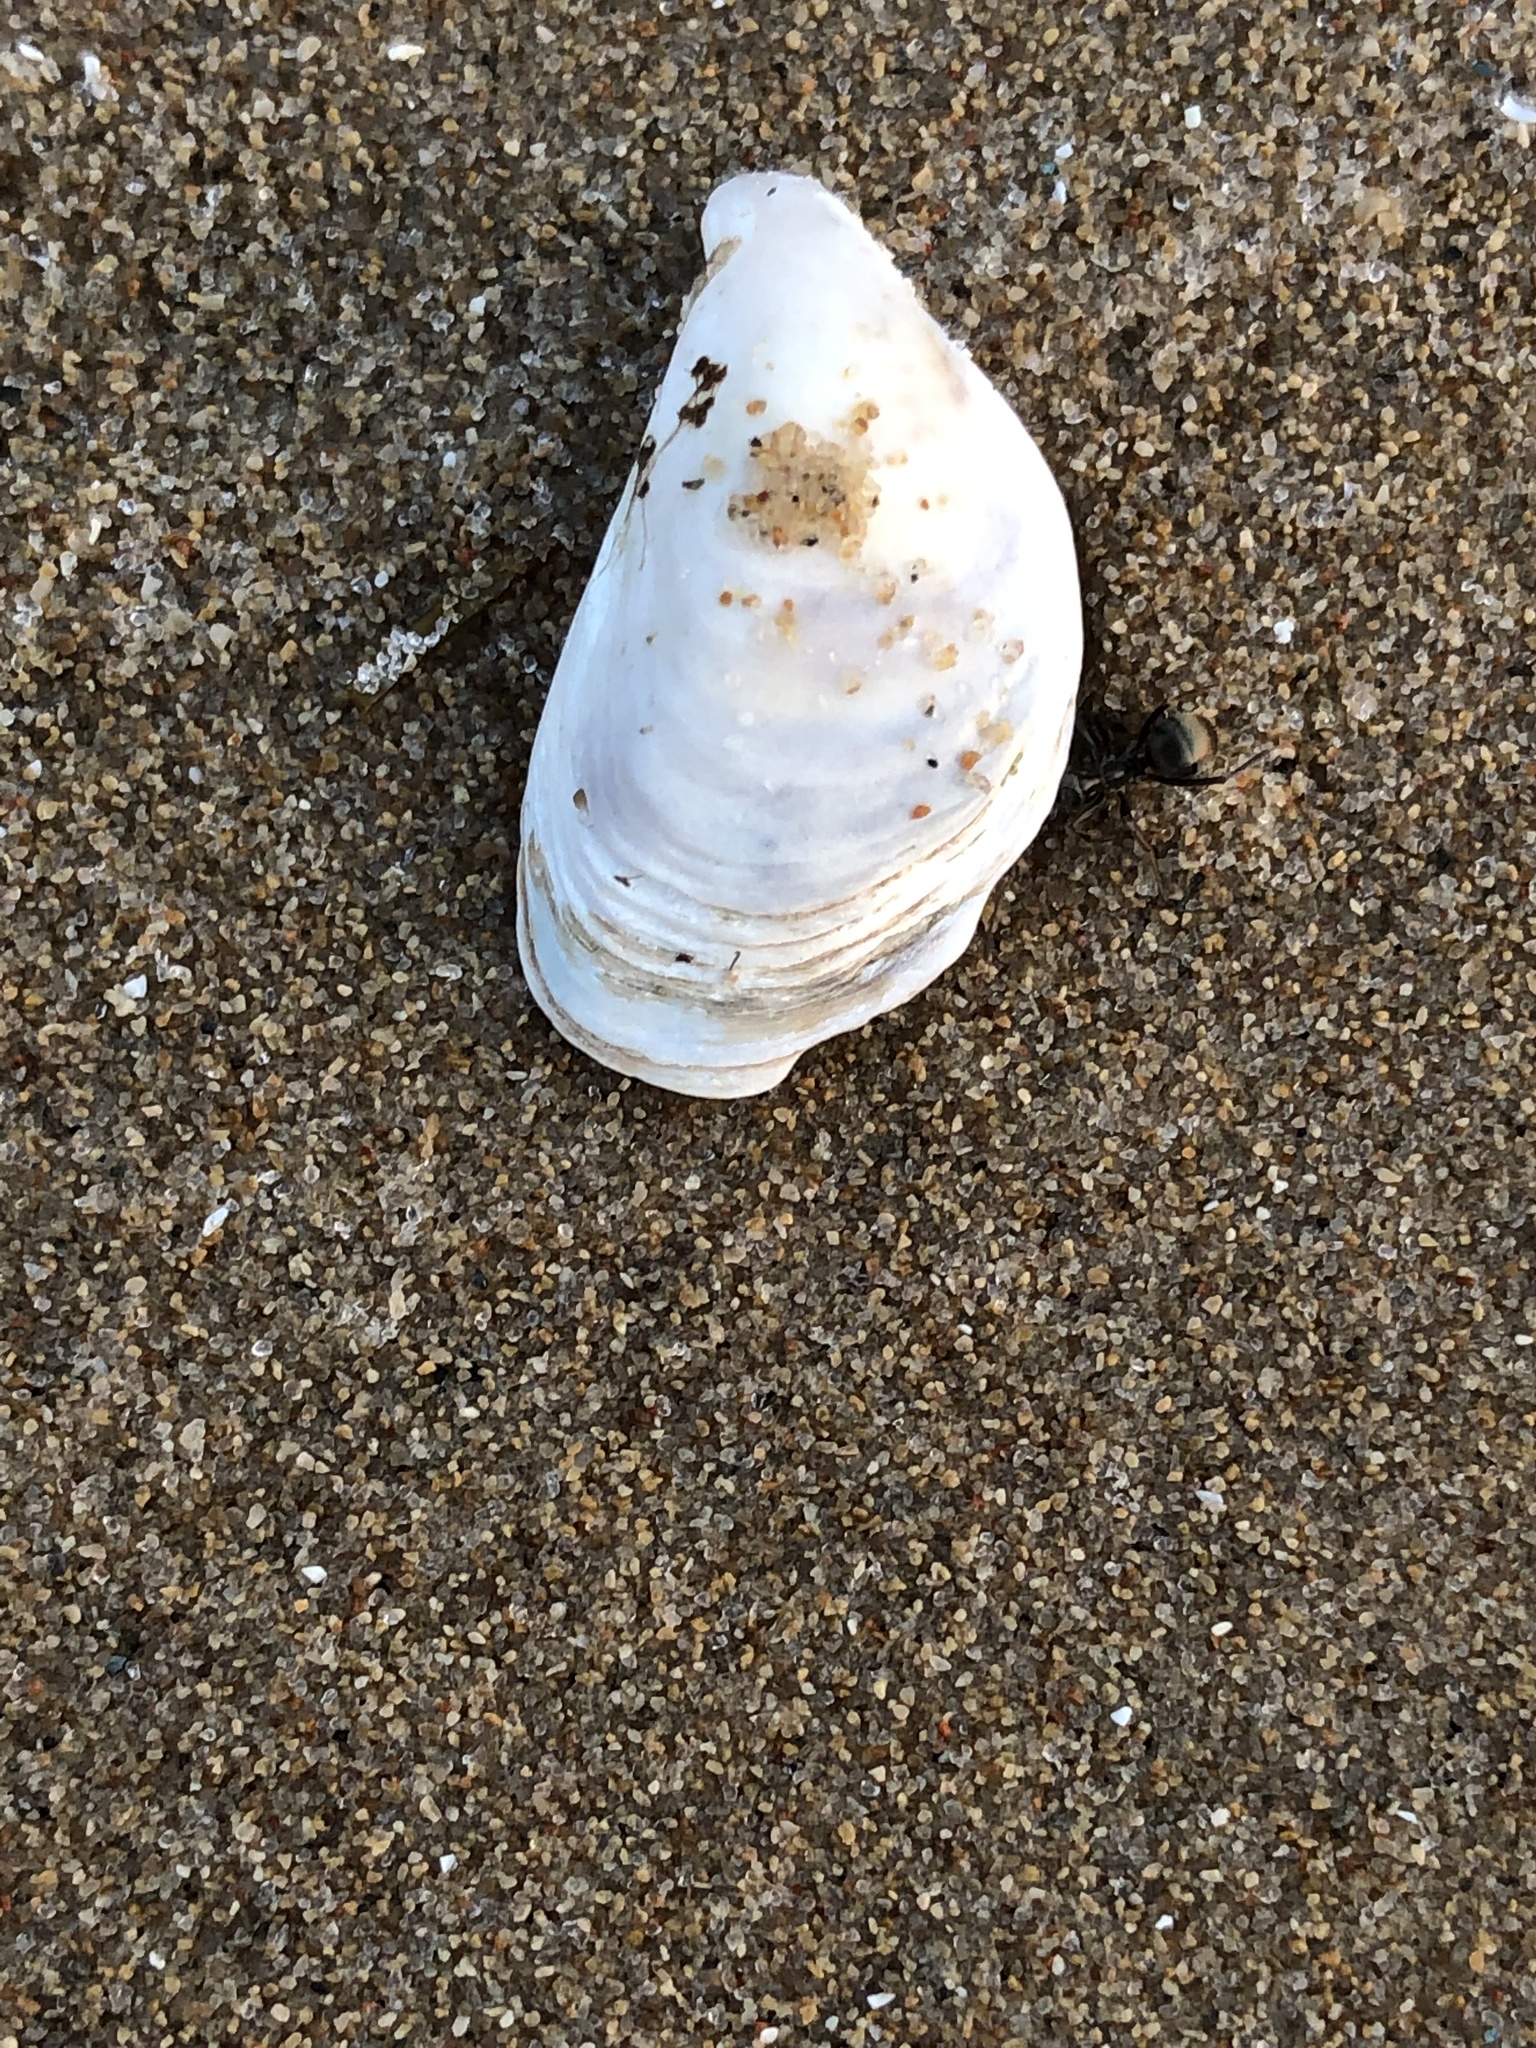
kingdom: Animalia
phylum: Mollusca
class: Bivalvia
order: Myida
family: Dreissenidae
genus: Dreissena
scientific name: Dreissena bugensis
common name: Quagga mussel
